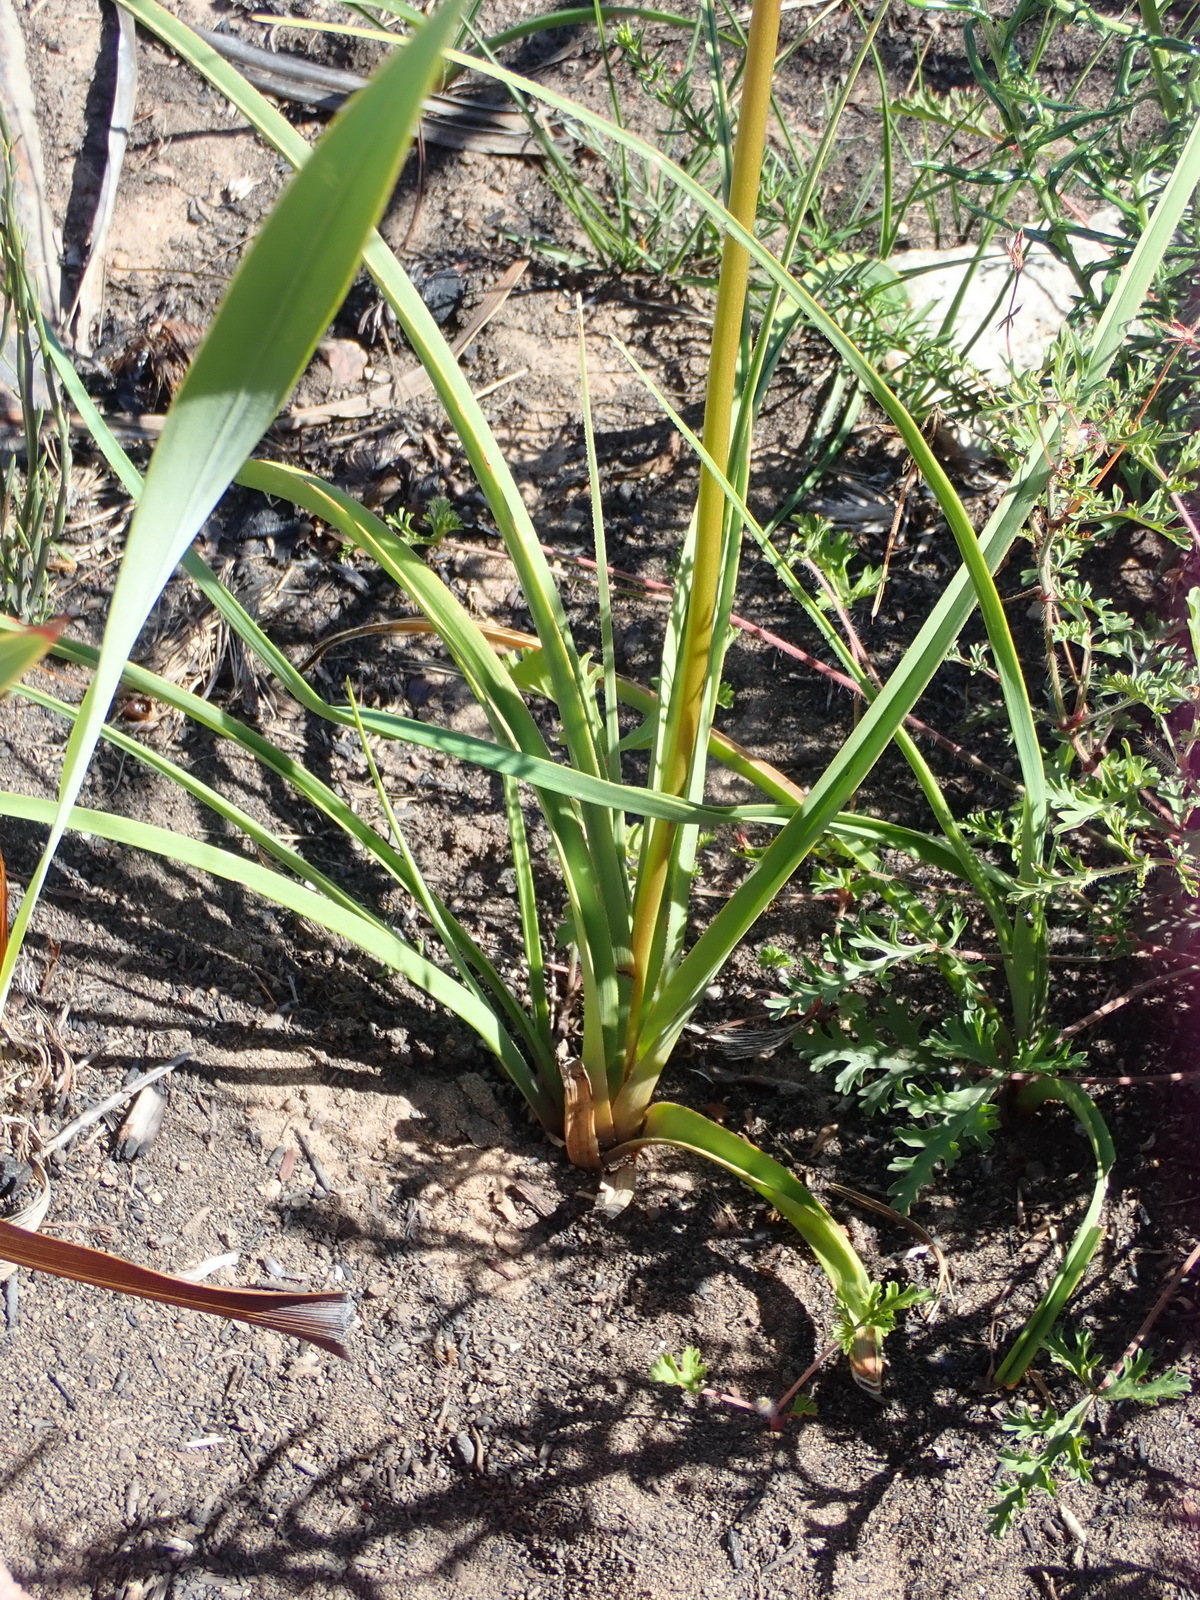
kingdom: Plantae
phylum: Tracheophyta
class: Liliopsida
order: Asparagales
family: Asphodelaceae
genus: Kniphofia
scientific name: Kniphofia uvaria
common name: Red-hot-poker
